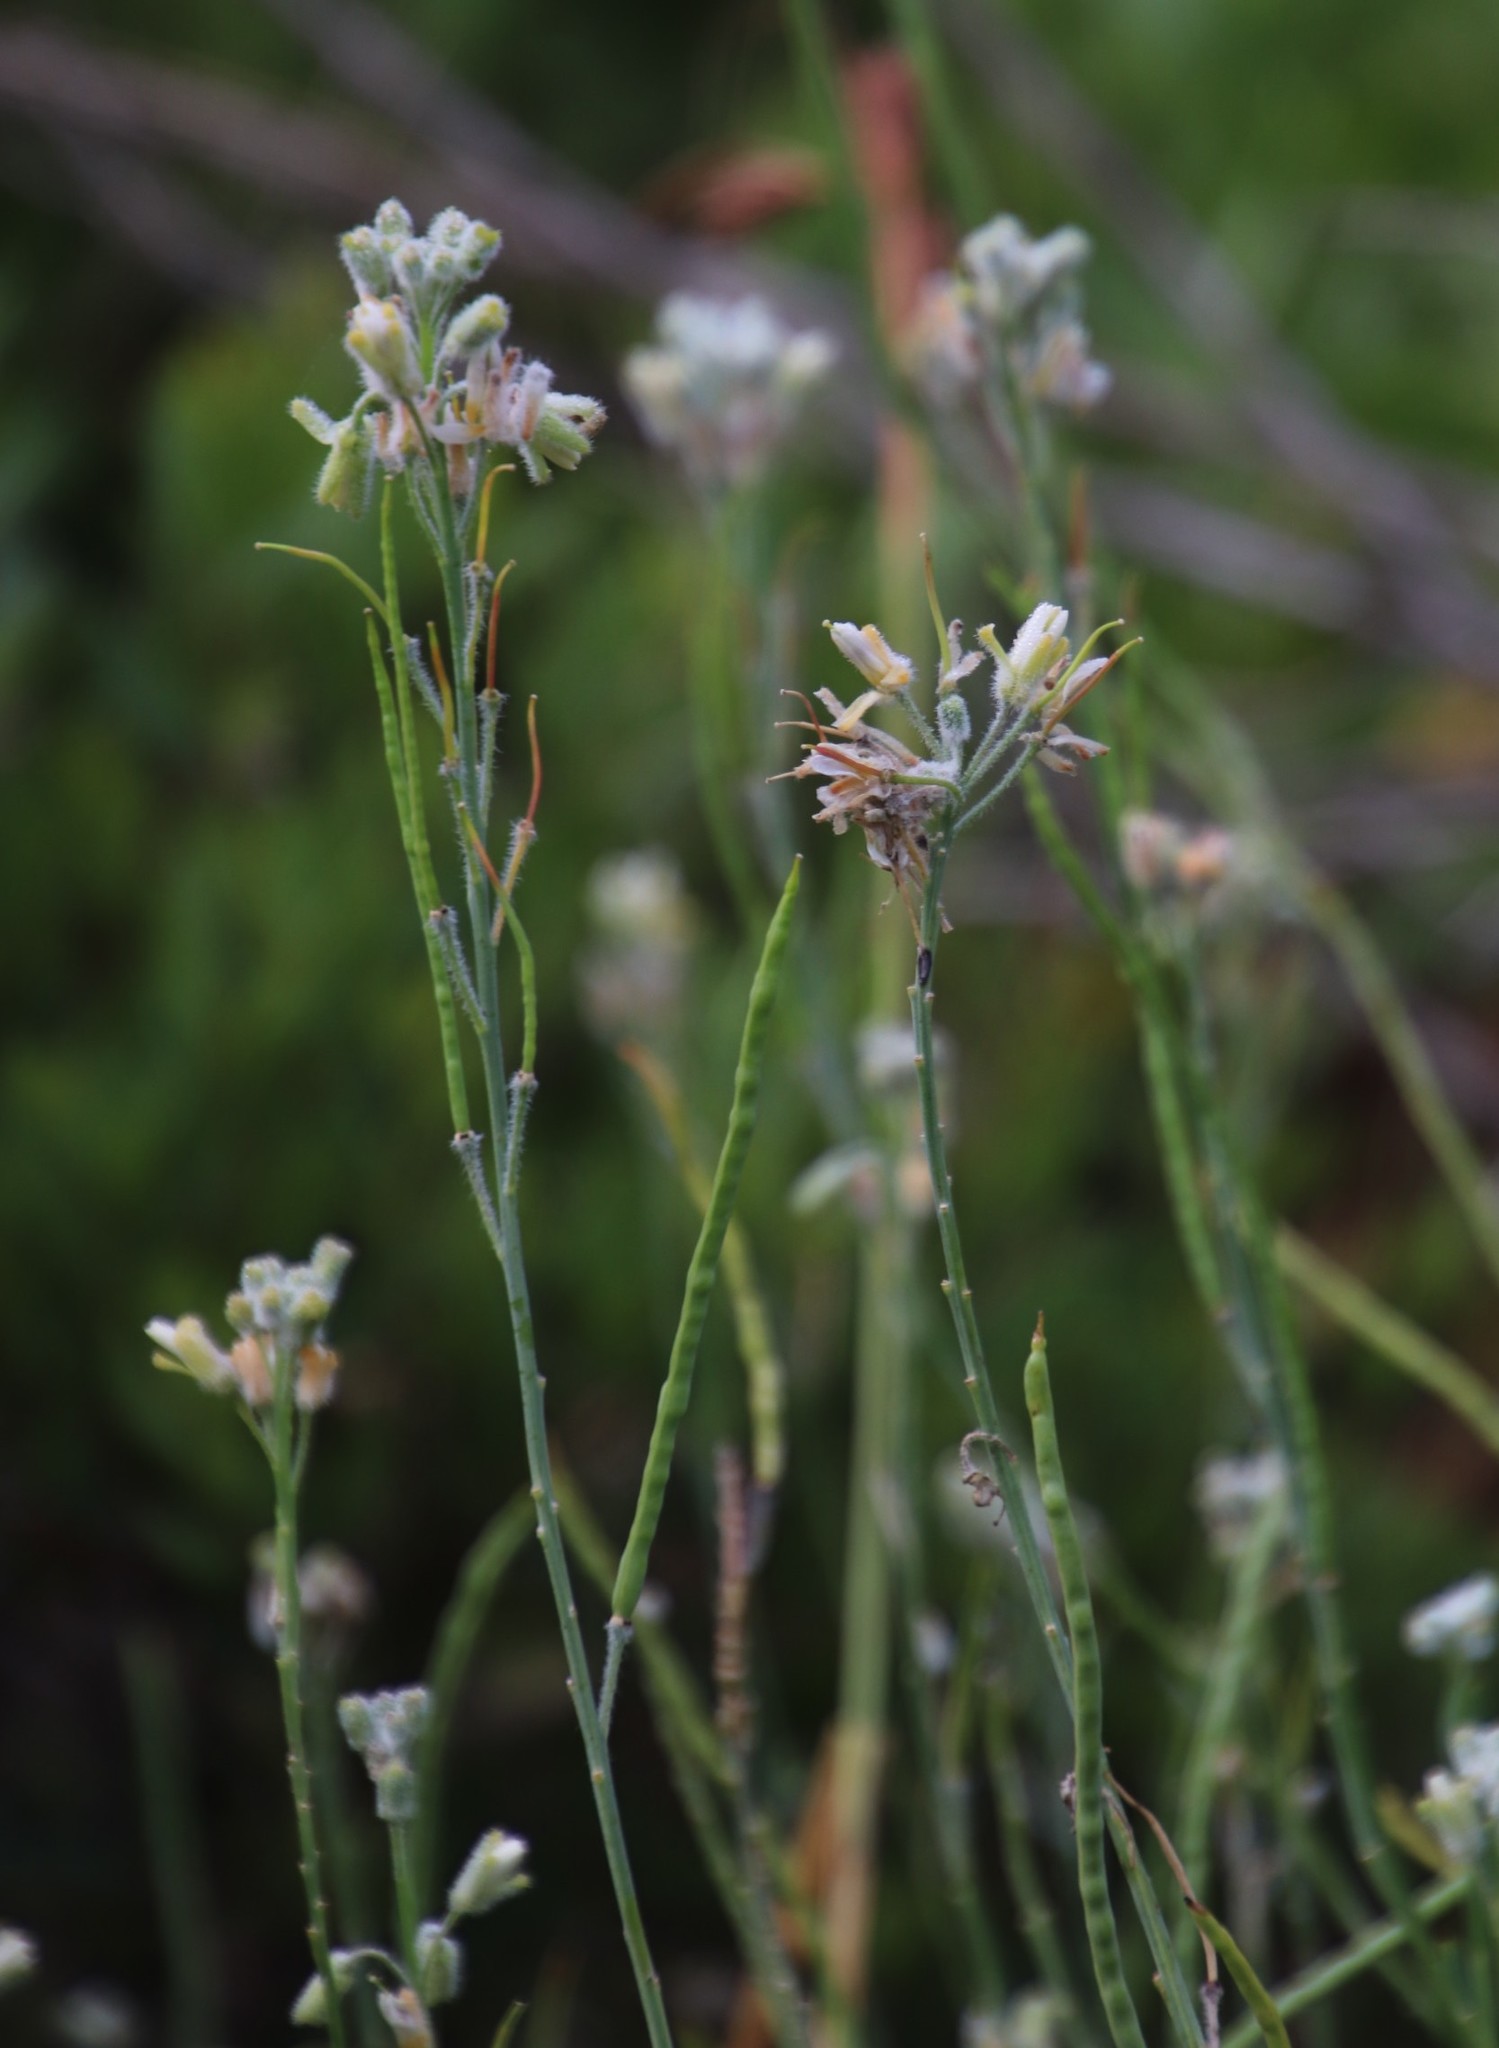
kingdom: Plantae
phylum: Tracheophyta
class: Magnoliopsida
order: Brassicales
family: Brassicaceae
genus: Heliophila
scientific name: Heliophila linearis
